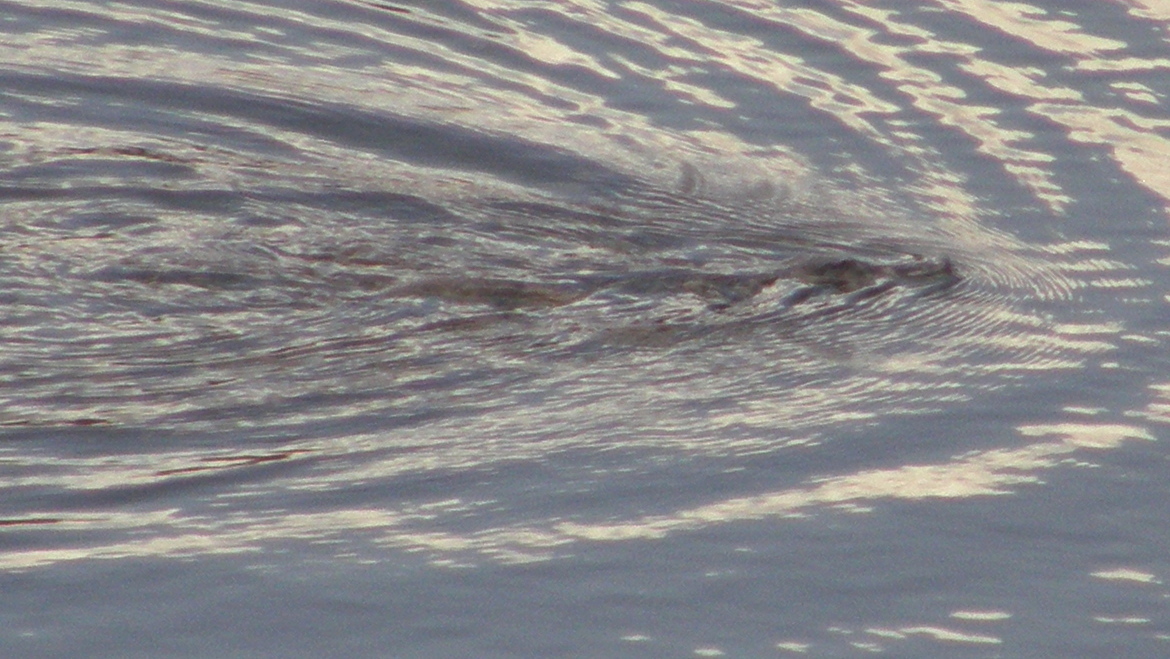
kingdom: Animalia
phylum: Chordata
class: Mammalia
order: Monotremata
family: Ornithorhynchidae
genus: Ornithorhynchus
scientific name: Ornithorhynchus anatinus
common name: Platypus
